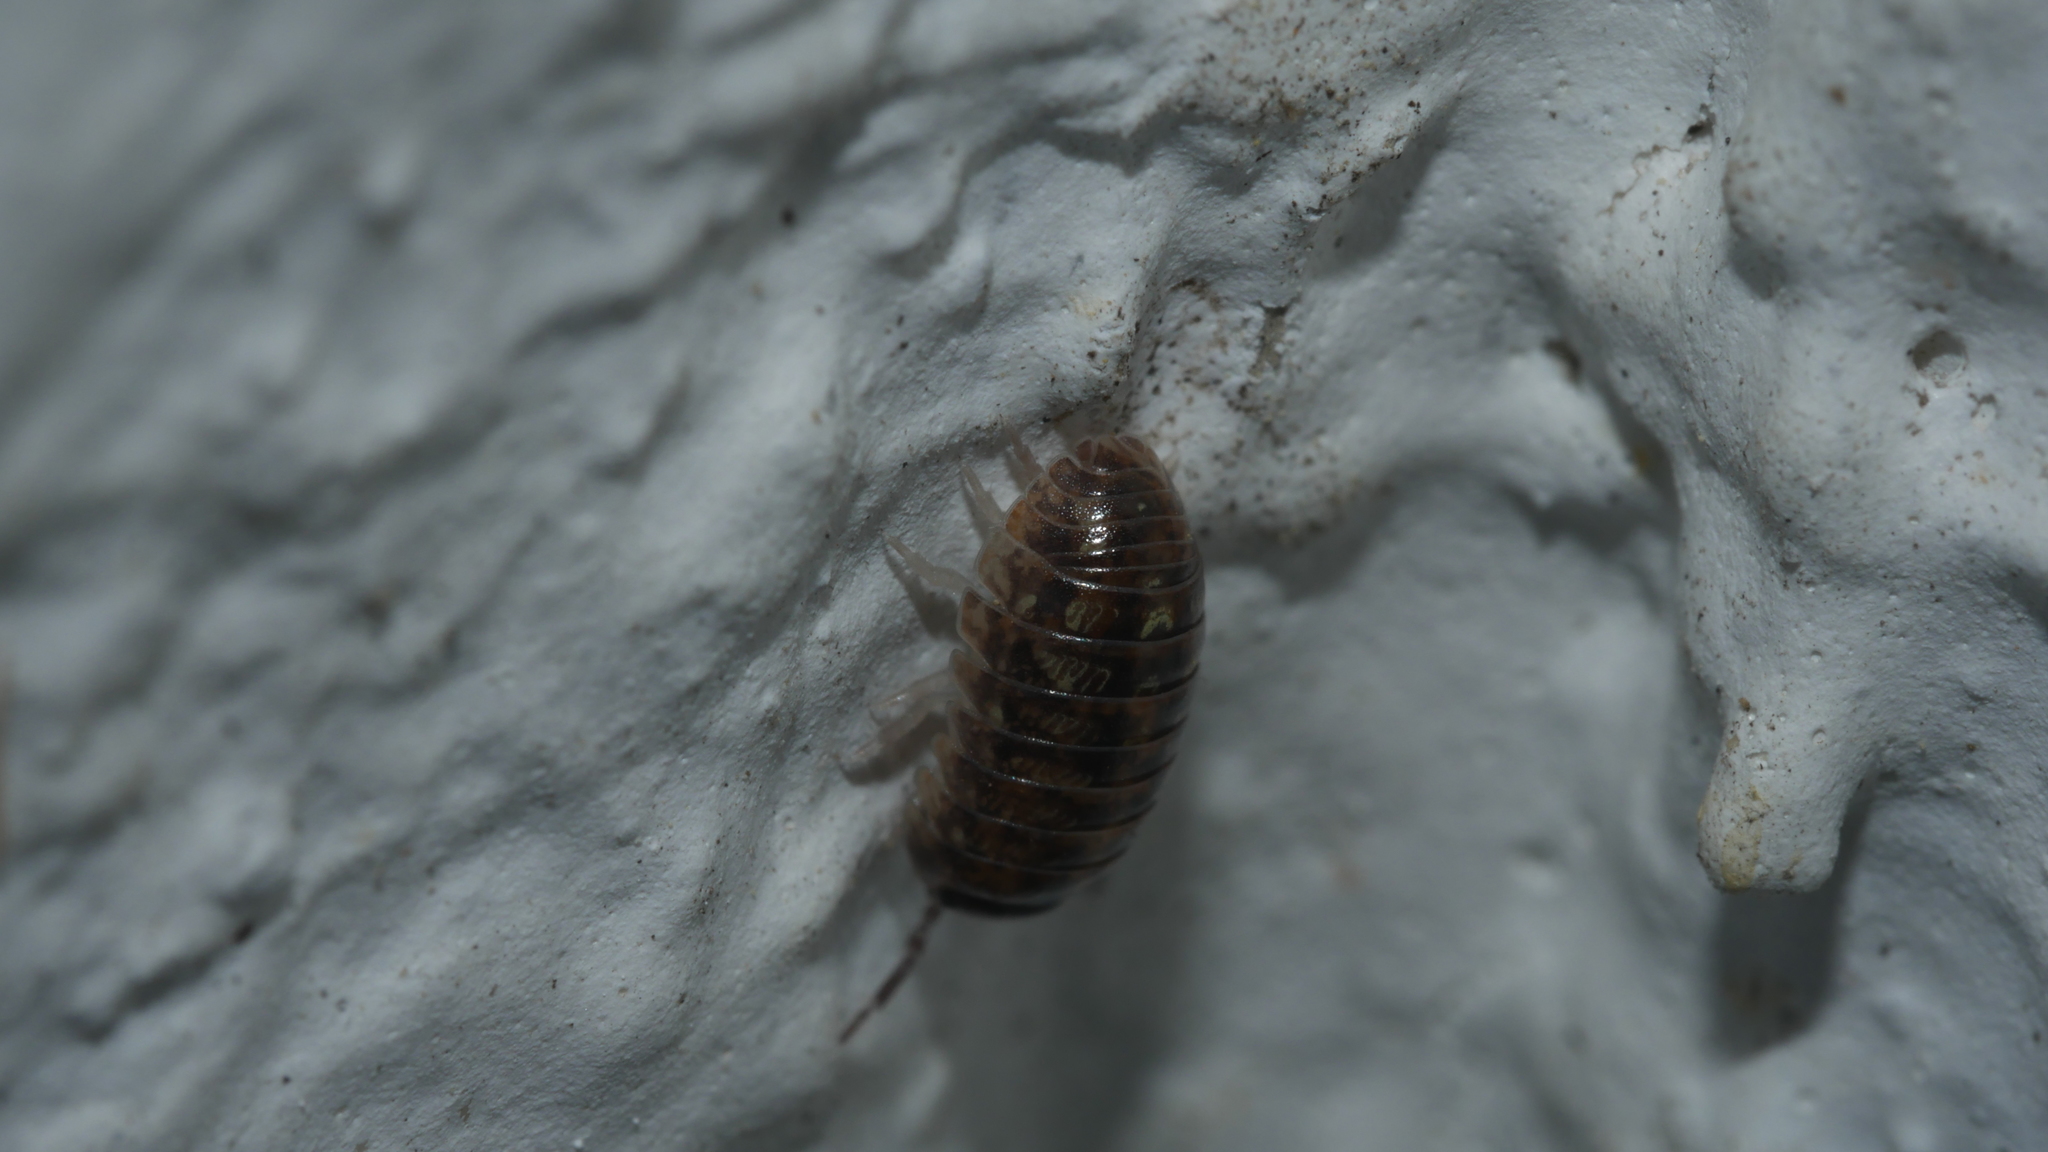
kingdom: Animalia
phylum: Arthropoda
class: Malacostraca
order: Isopoda
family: Armadillidiidae
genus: Armadillidium
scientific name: Armadillidium vulgare
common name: Common pill woodlouse
